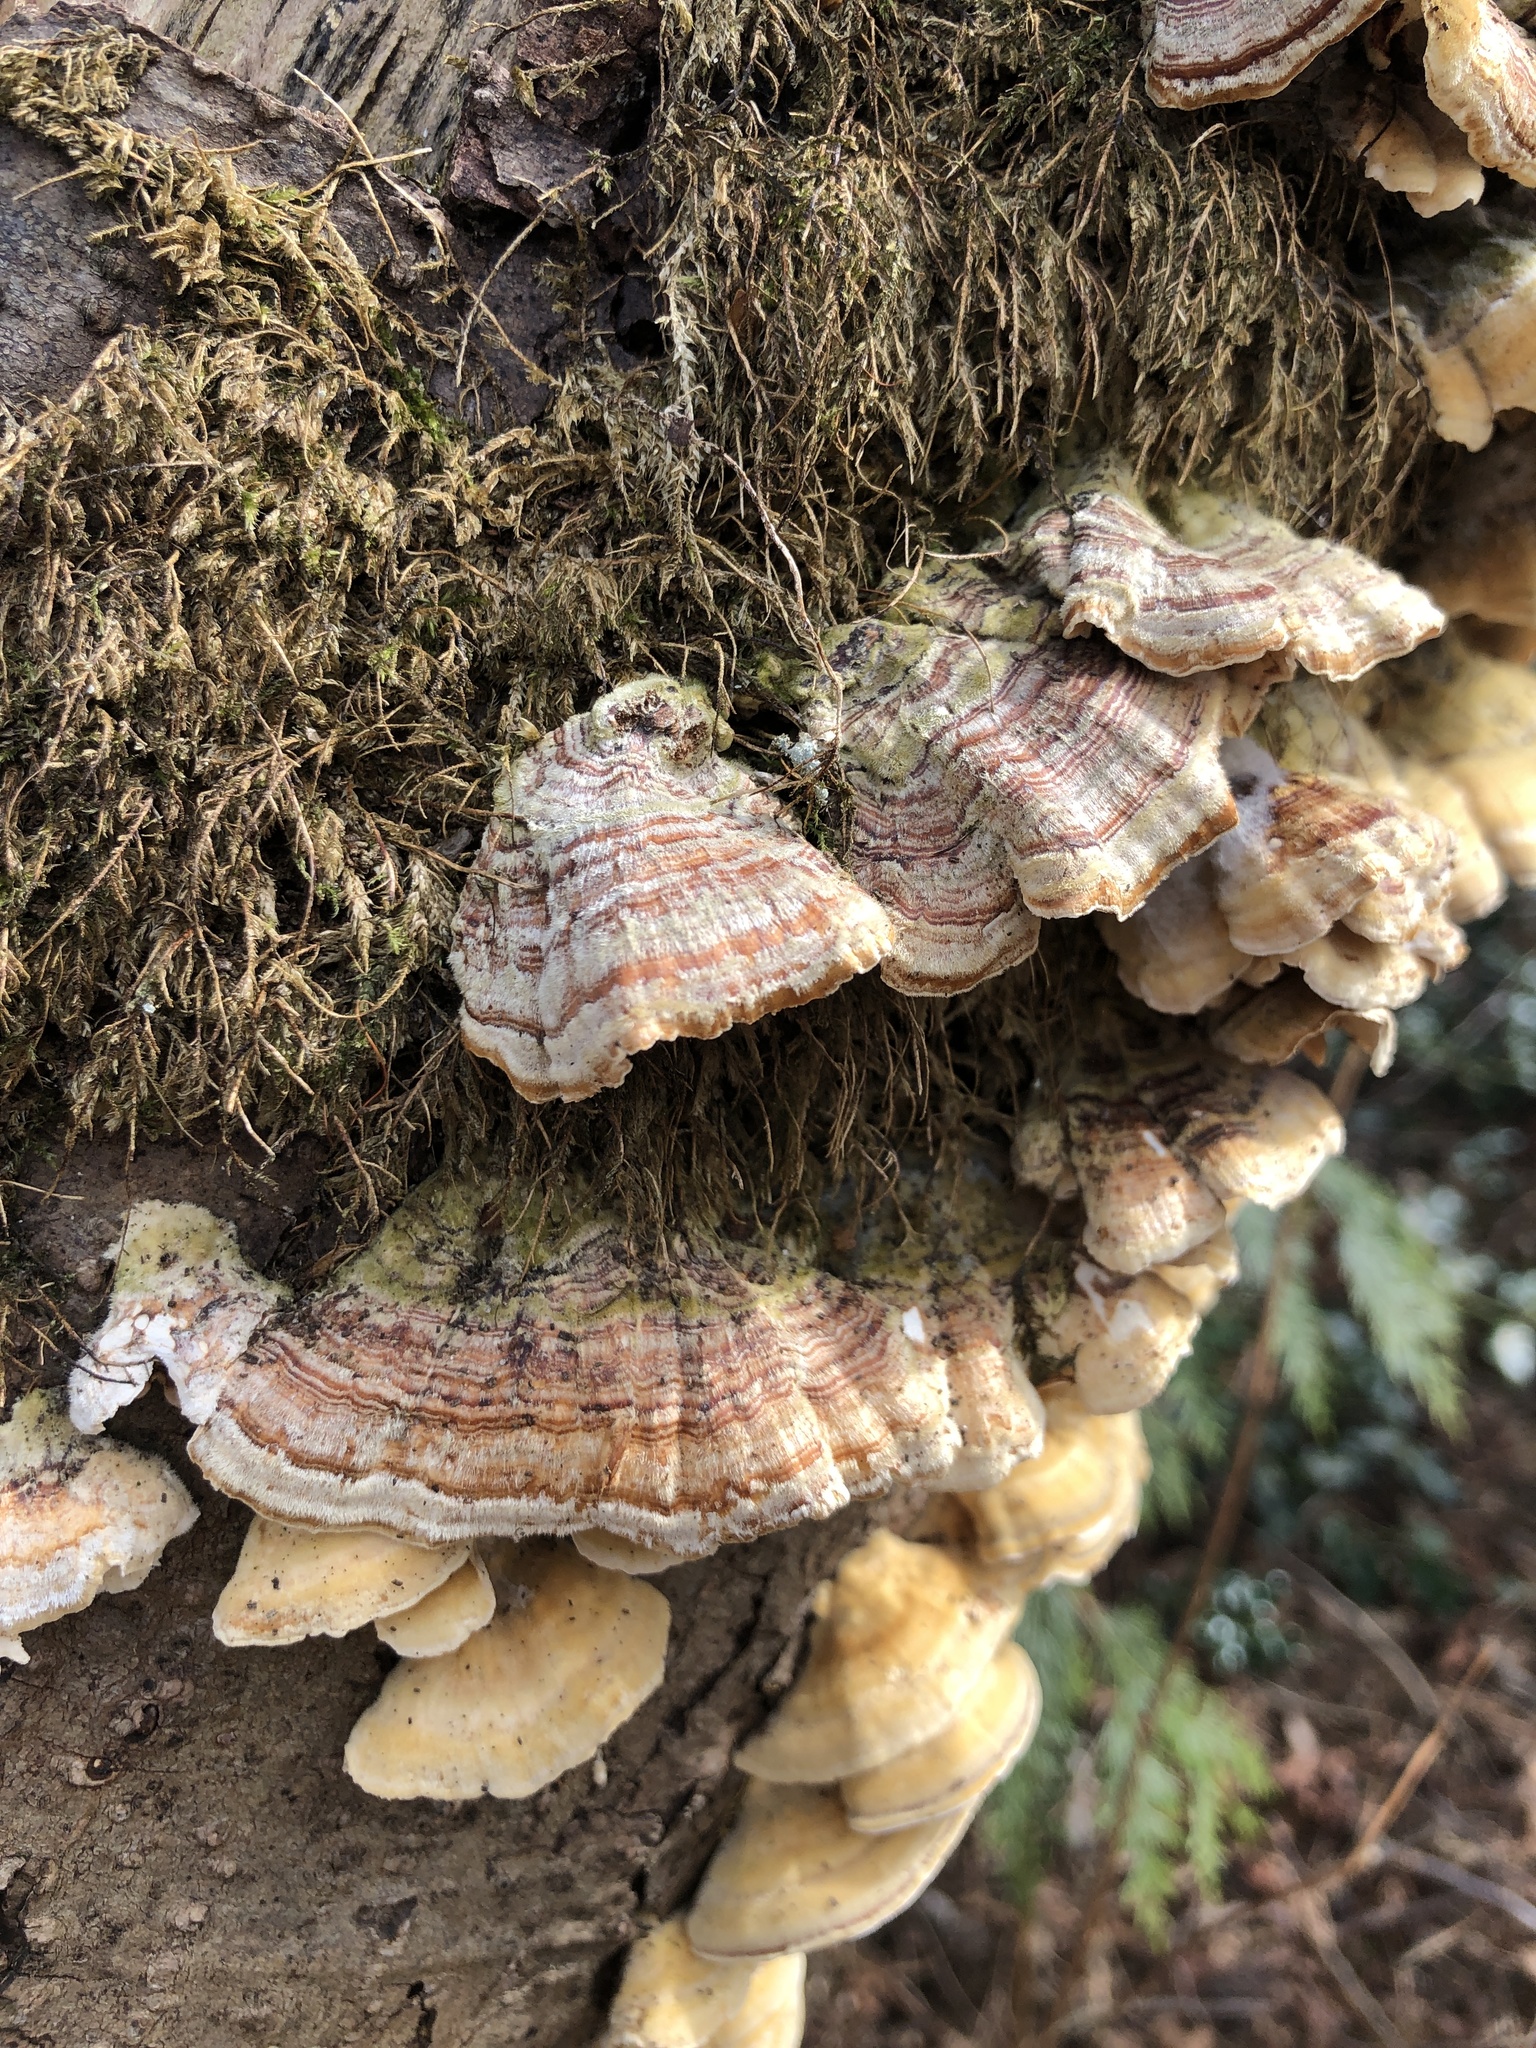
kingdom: Fungi
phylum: Basidiomycota
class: Agaricomycetes
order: Polyporales
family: Polyporaceae
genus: Trametes
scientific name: Trametes versicolor
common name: Turkeytail
